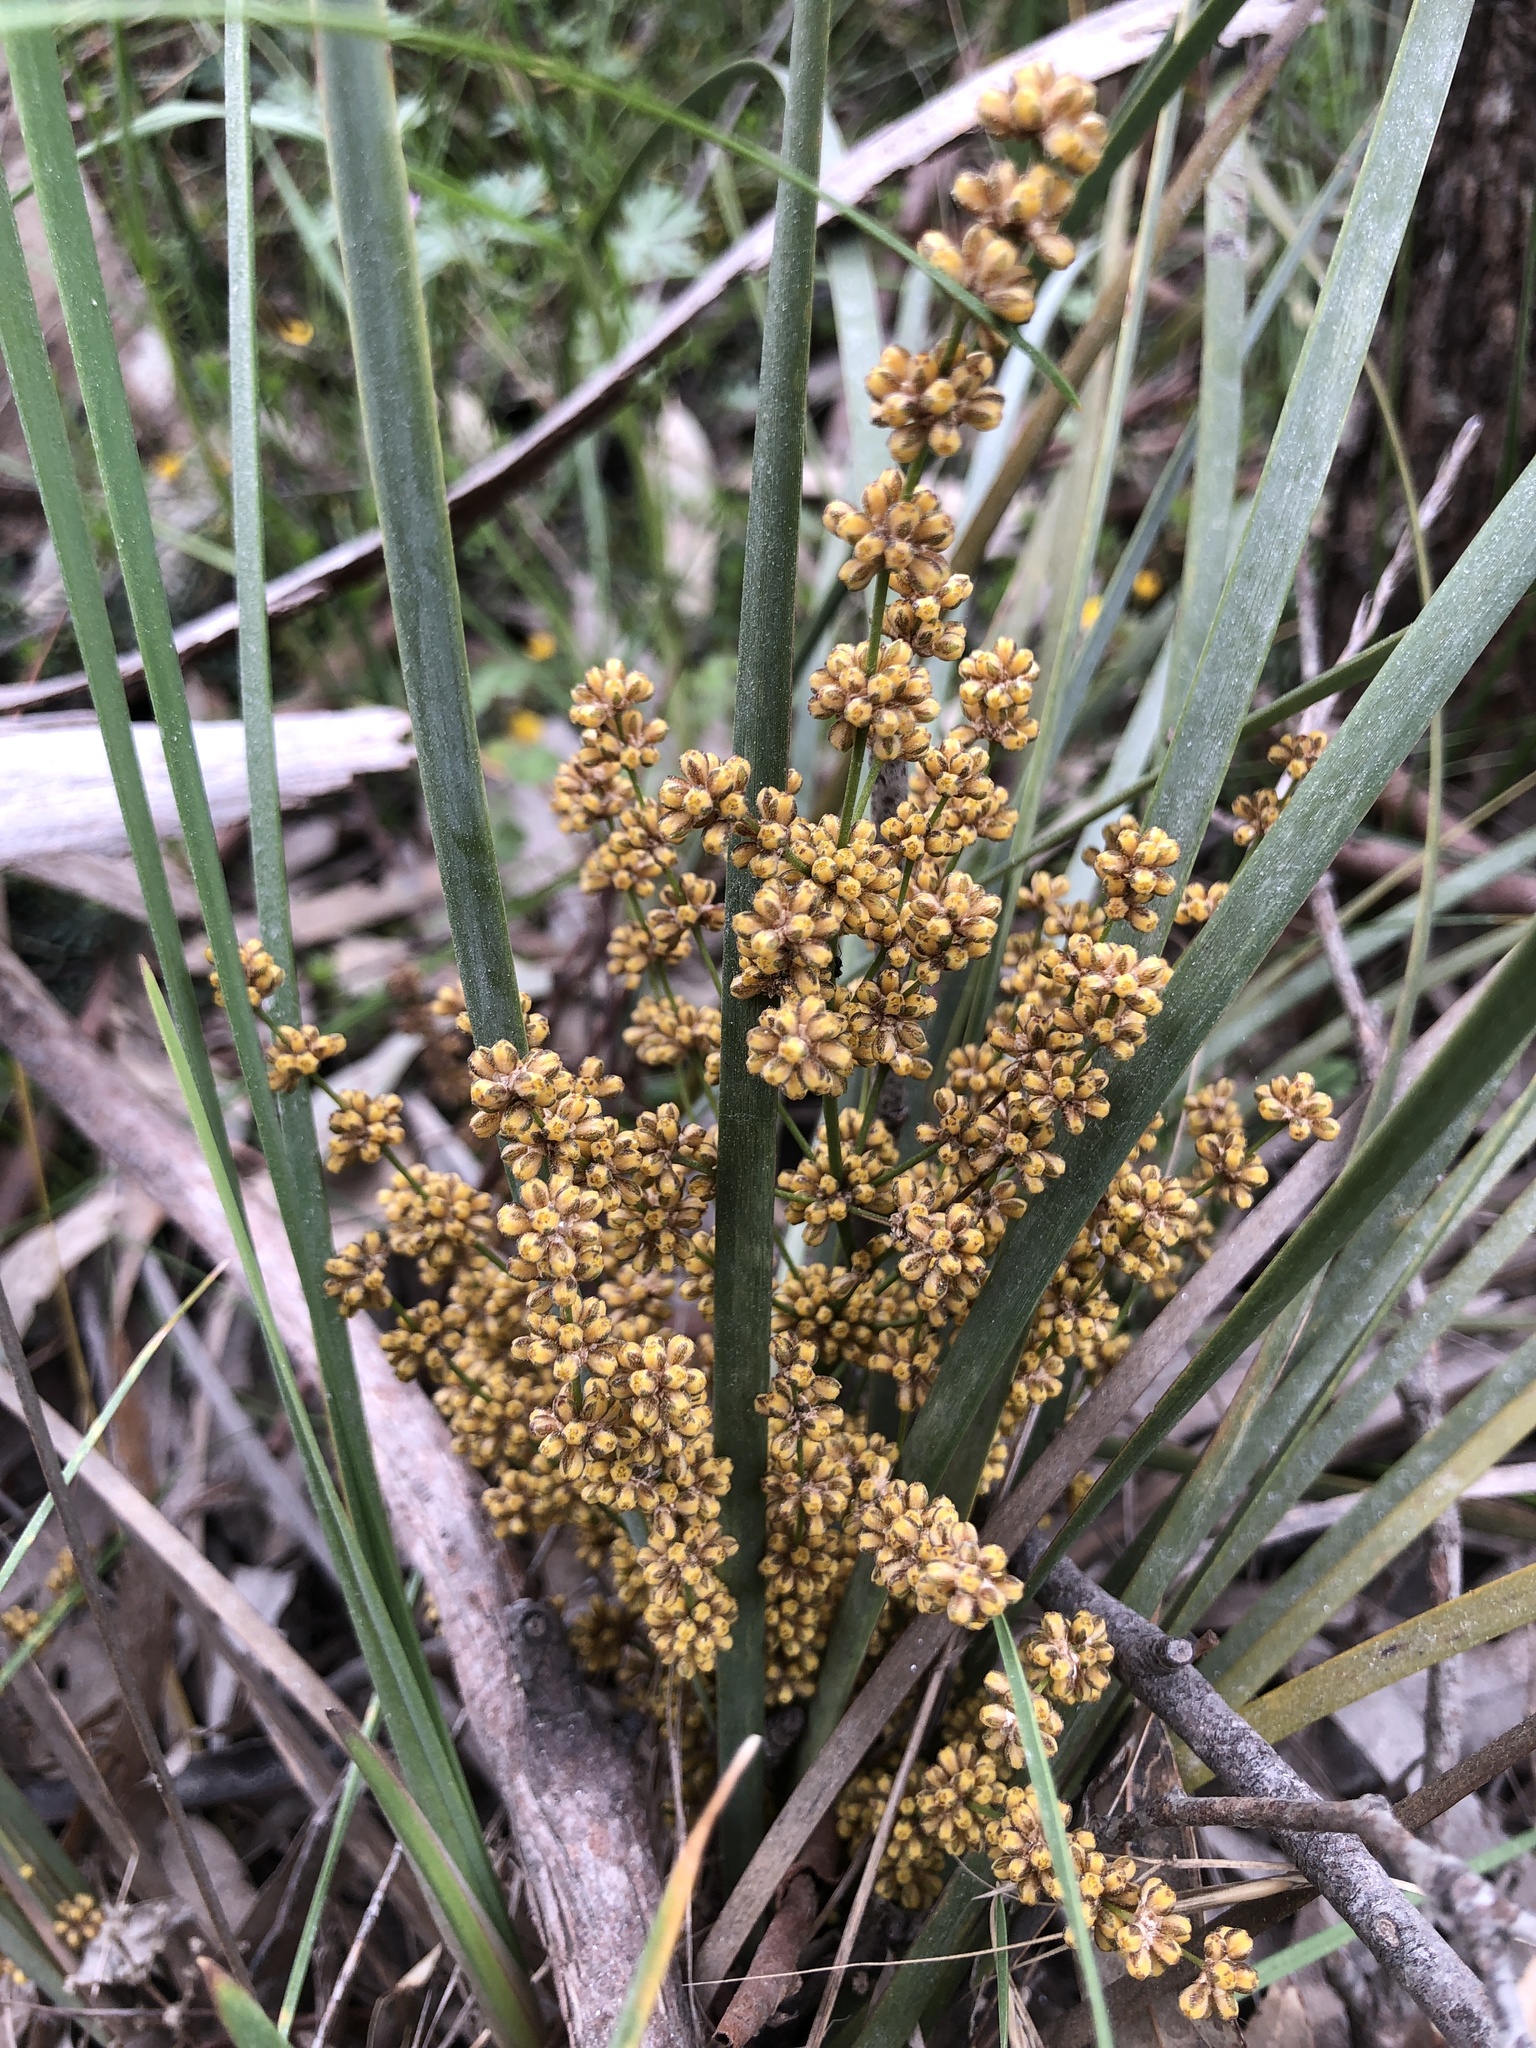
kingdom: Plantae
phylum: Tracheophyta
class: Liliopsida
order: Asparagales
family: Asparagaceae
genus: Lomandra
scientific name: Lomandra multiflora
